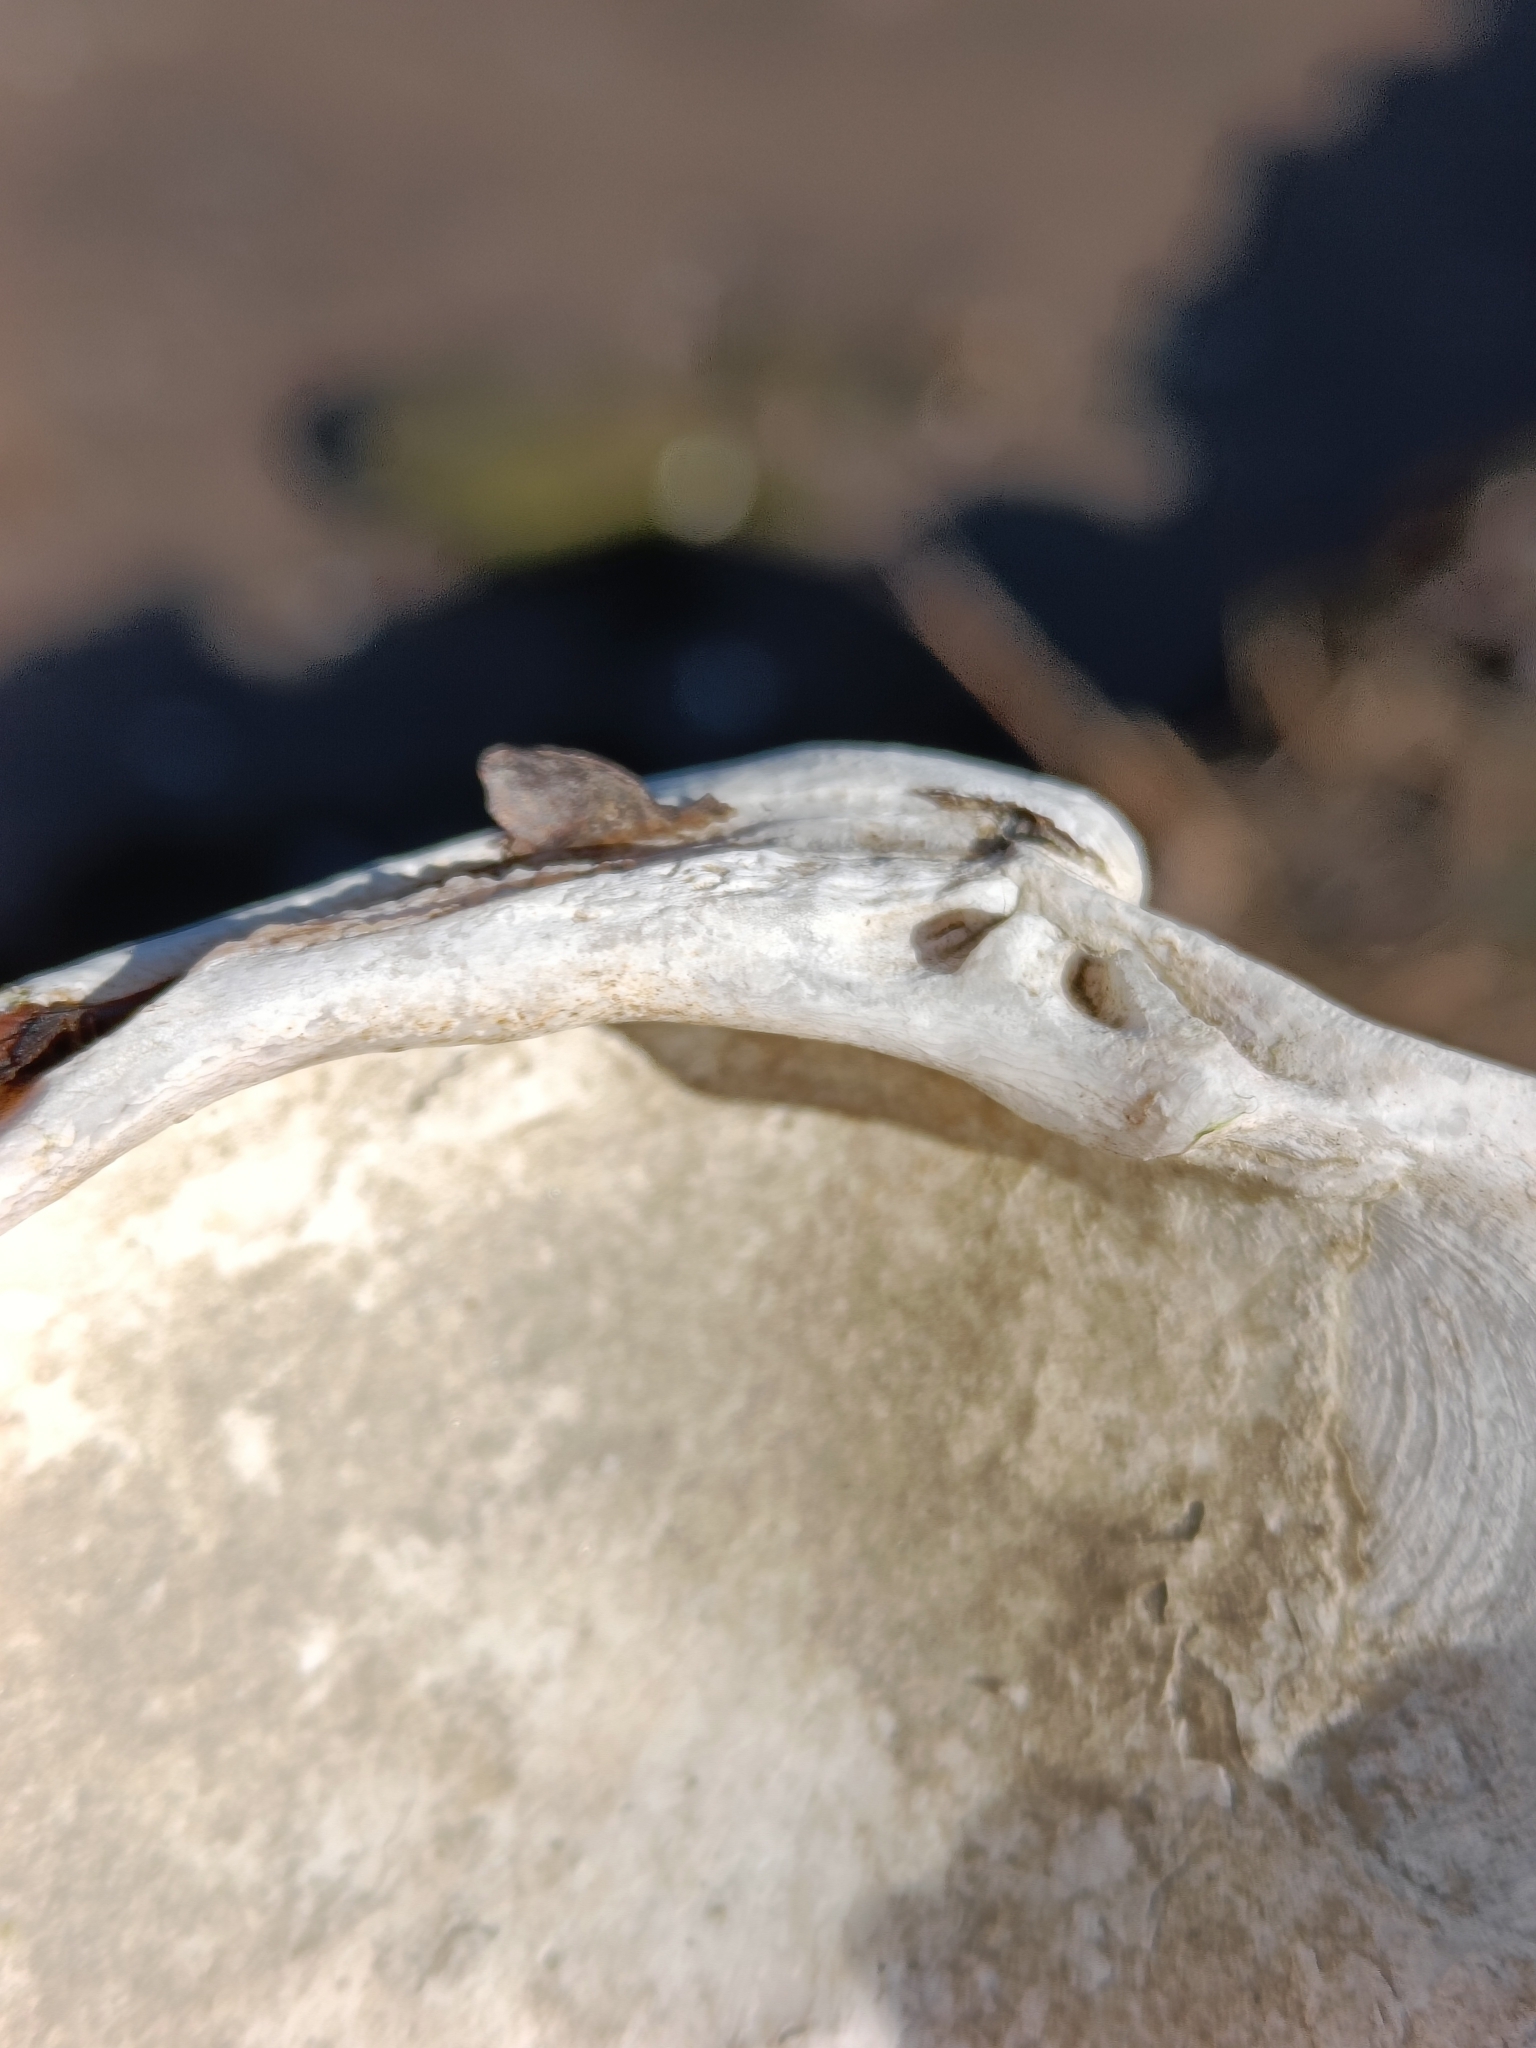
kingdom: Animalia
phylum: Mollusca
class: Bivalvia
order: Venerida
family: Veneridae
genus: Mercenaria
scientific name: Mercenaria mercenaria
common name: American hard-shelled clam
